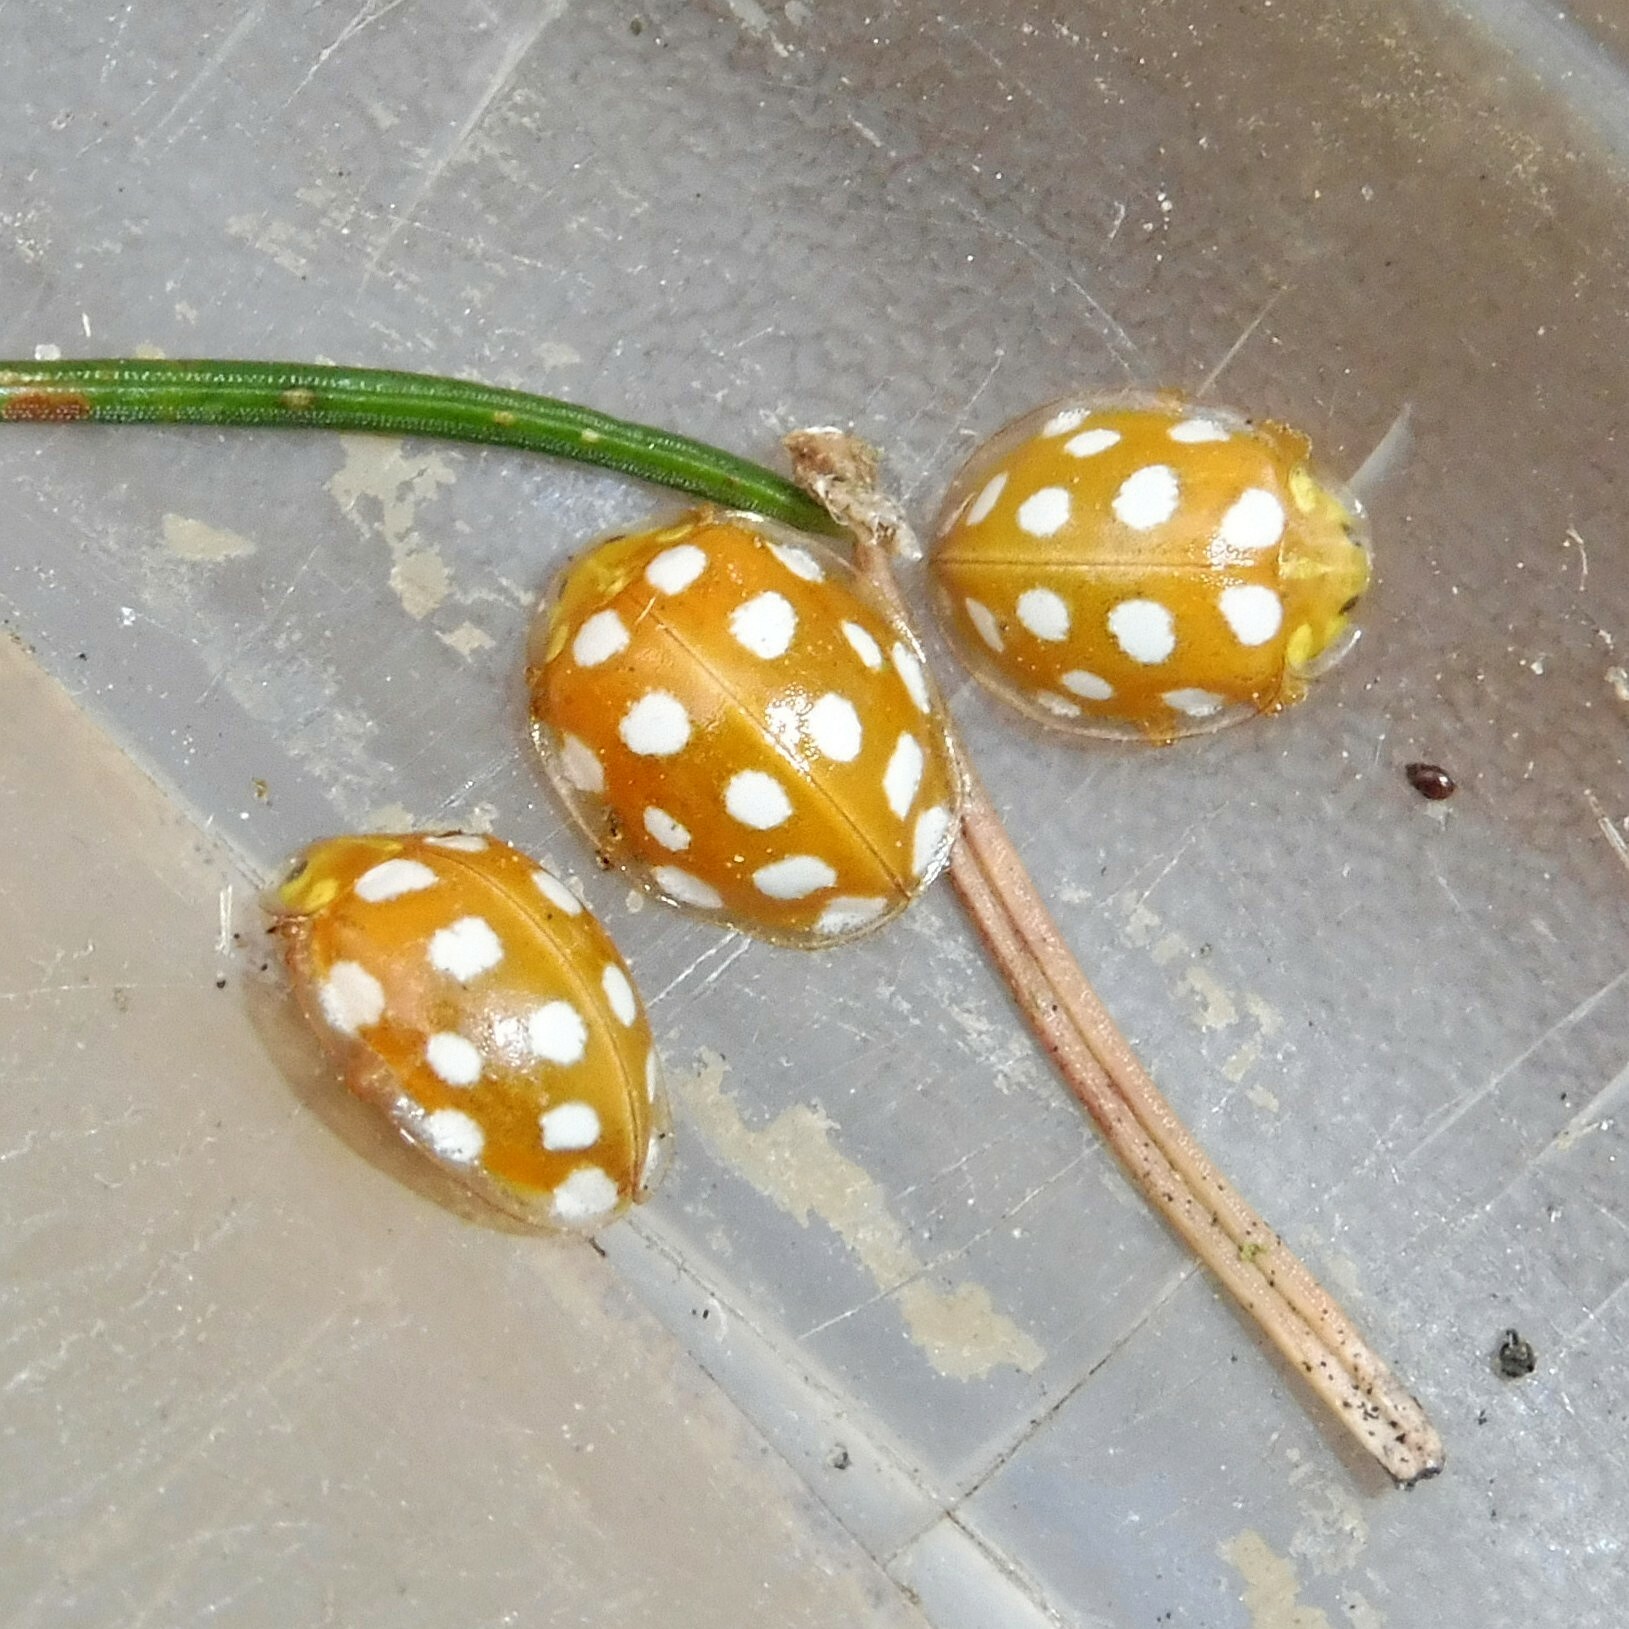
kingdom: Animalia
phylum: Arthropoda
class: Insecta
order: Coleoptera
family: Coccinellidae
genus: Halyzia
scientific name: Halyzia sedecimguttata
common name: Orange ladybird
